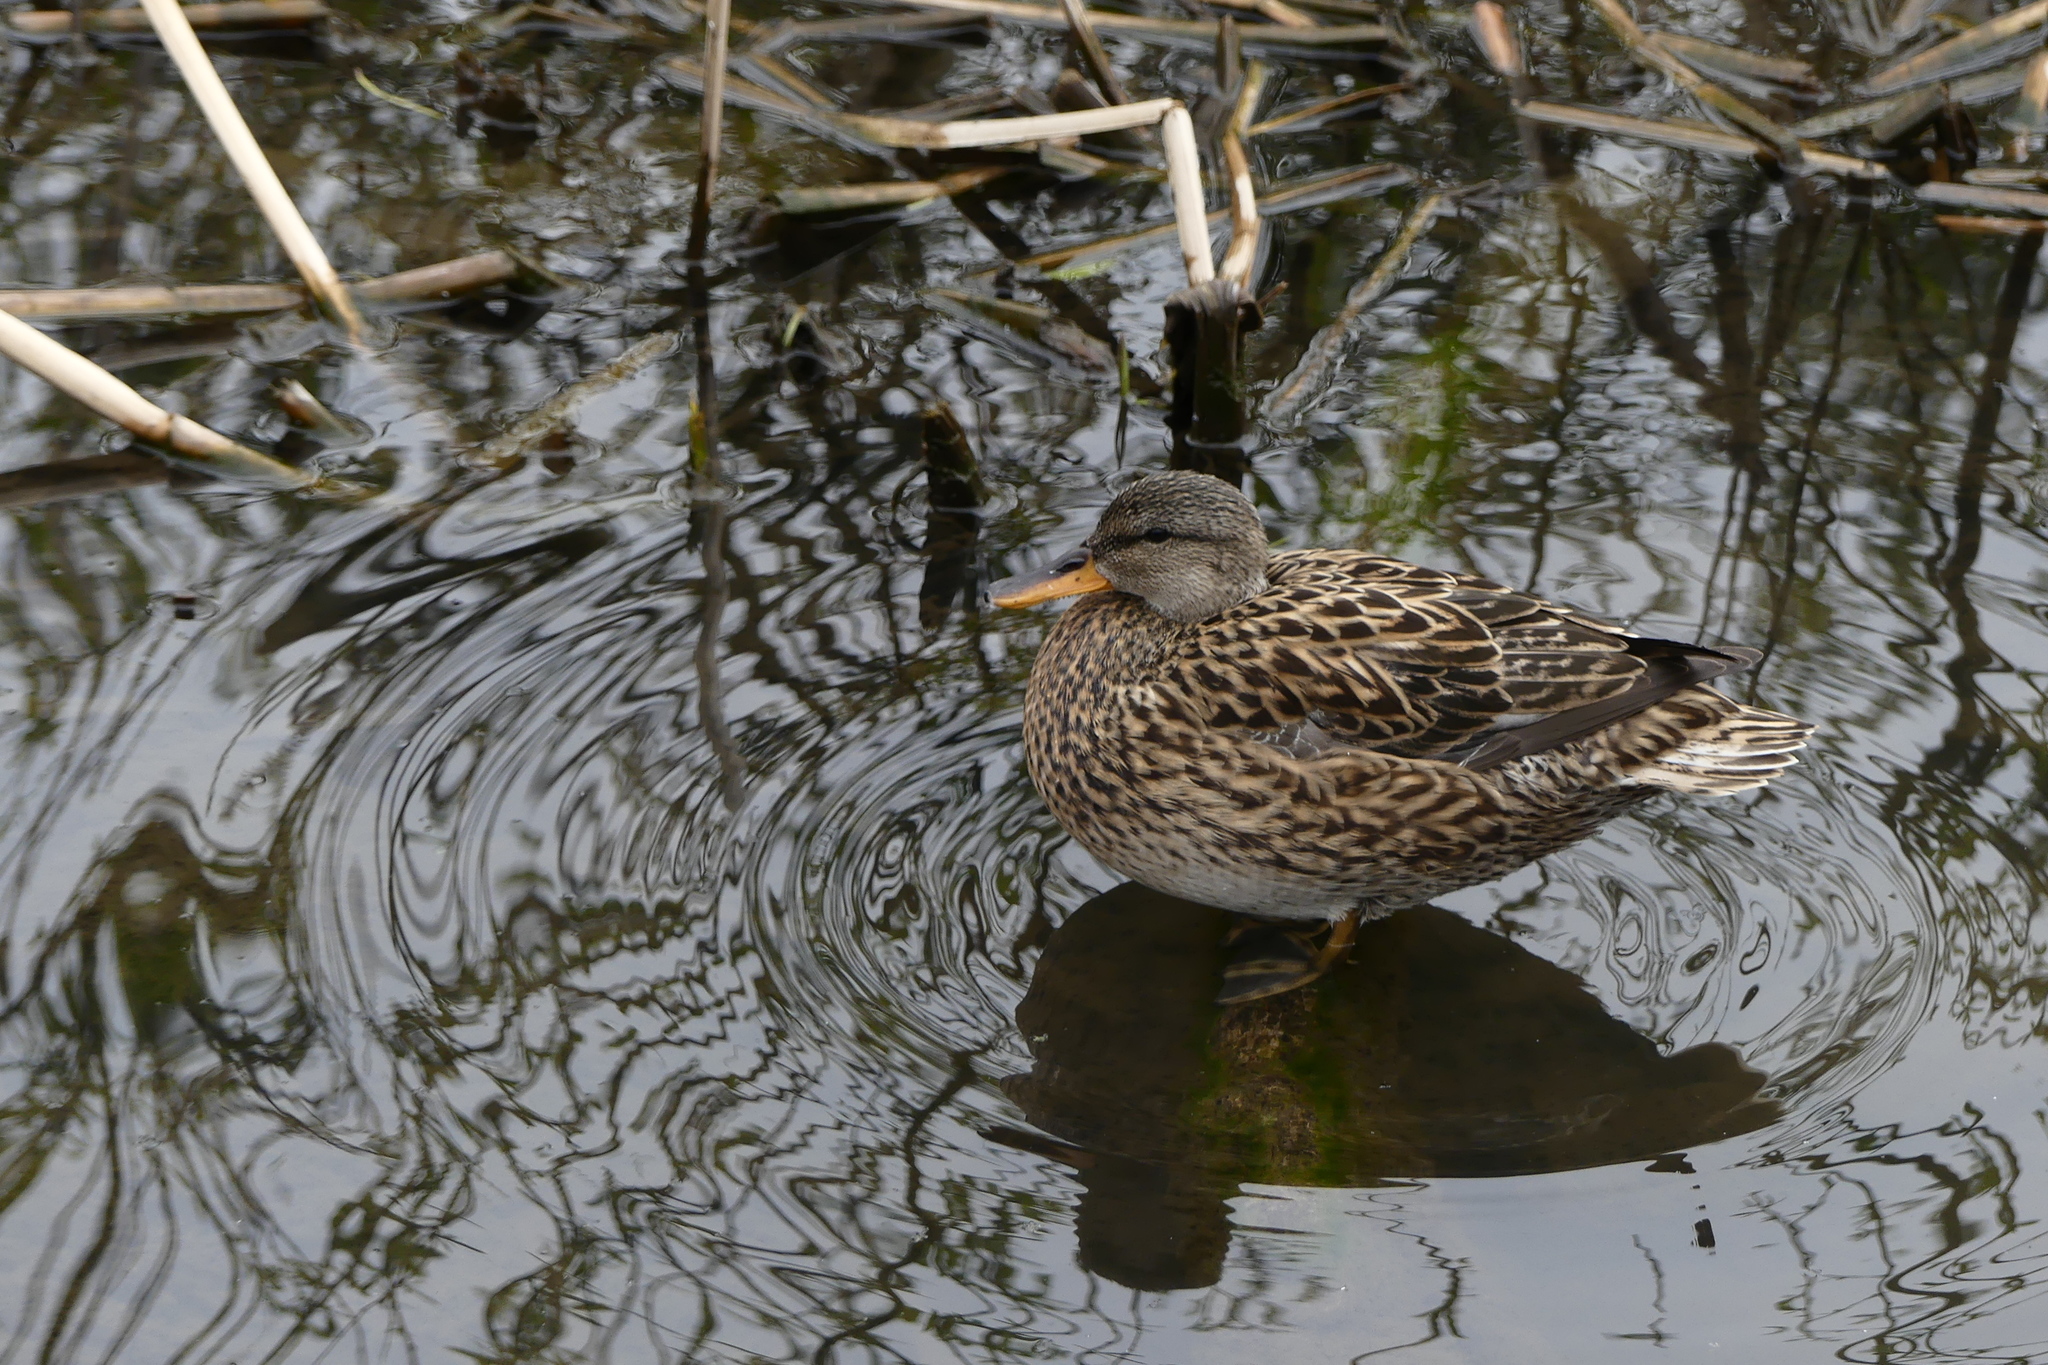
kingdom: Animalia
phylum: Chordata
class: Aves
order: Anseriformes
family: Anatidae
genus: Anas
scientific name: Anas platyrhynchos
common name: Mallard
